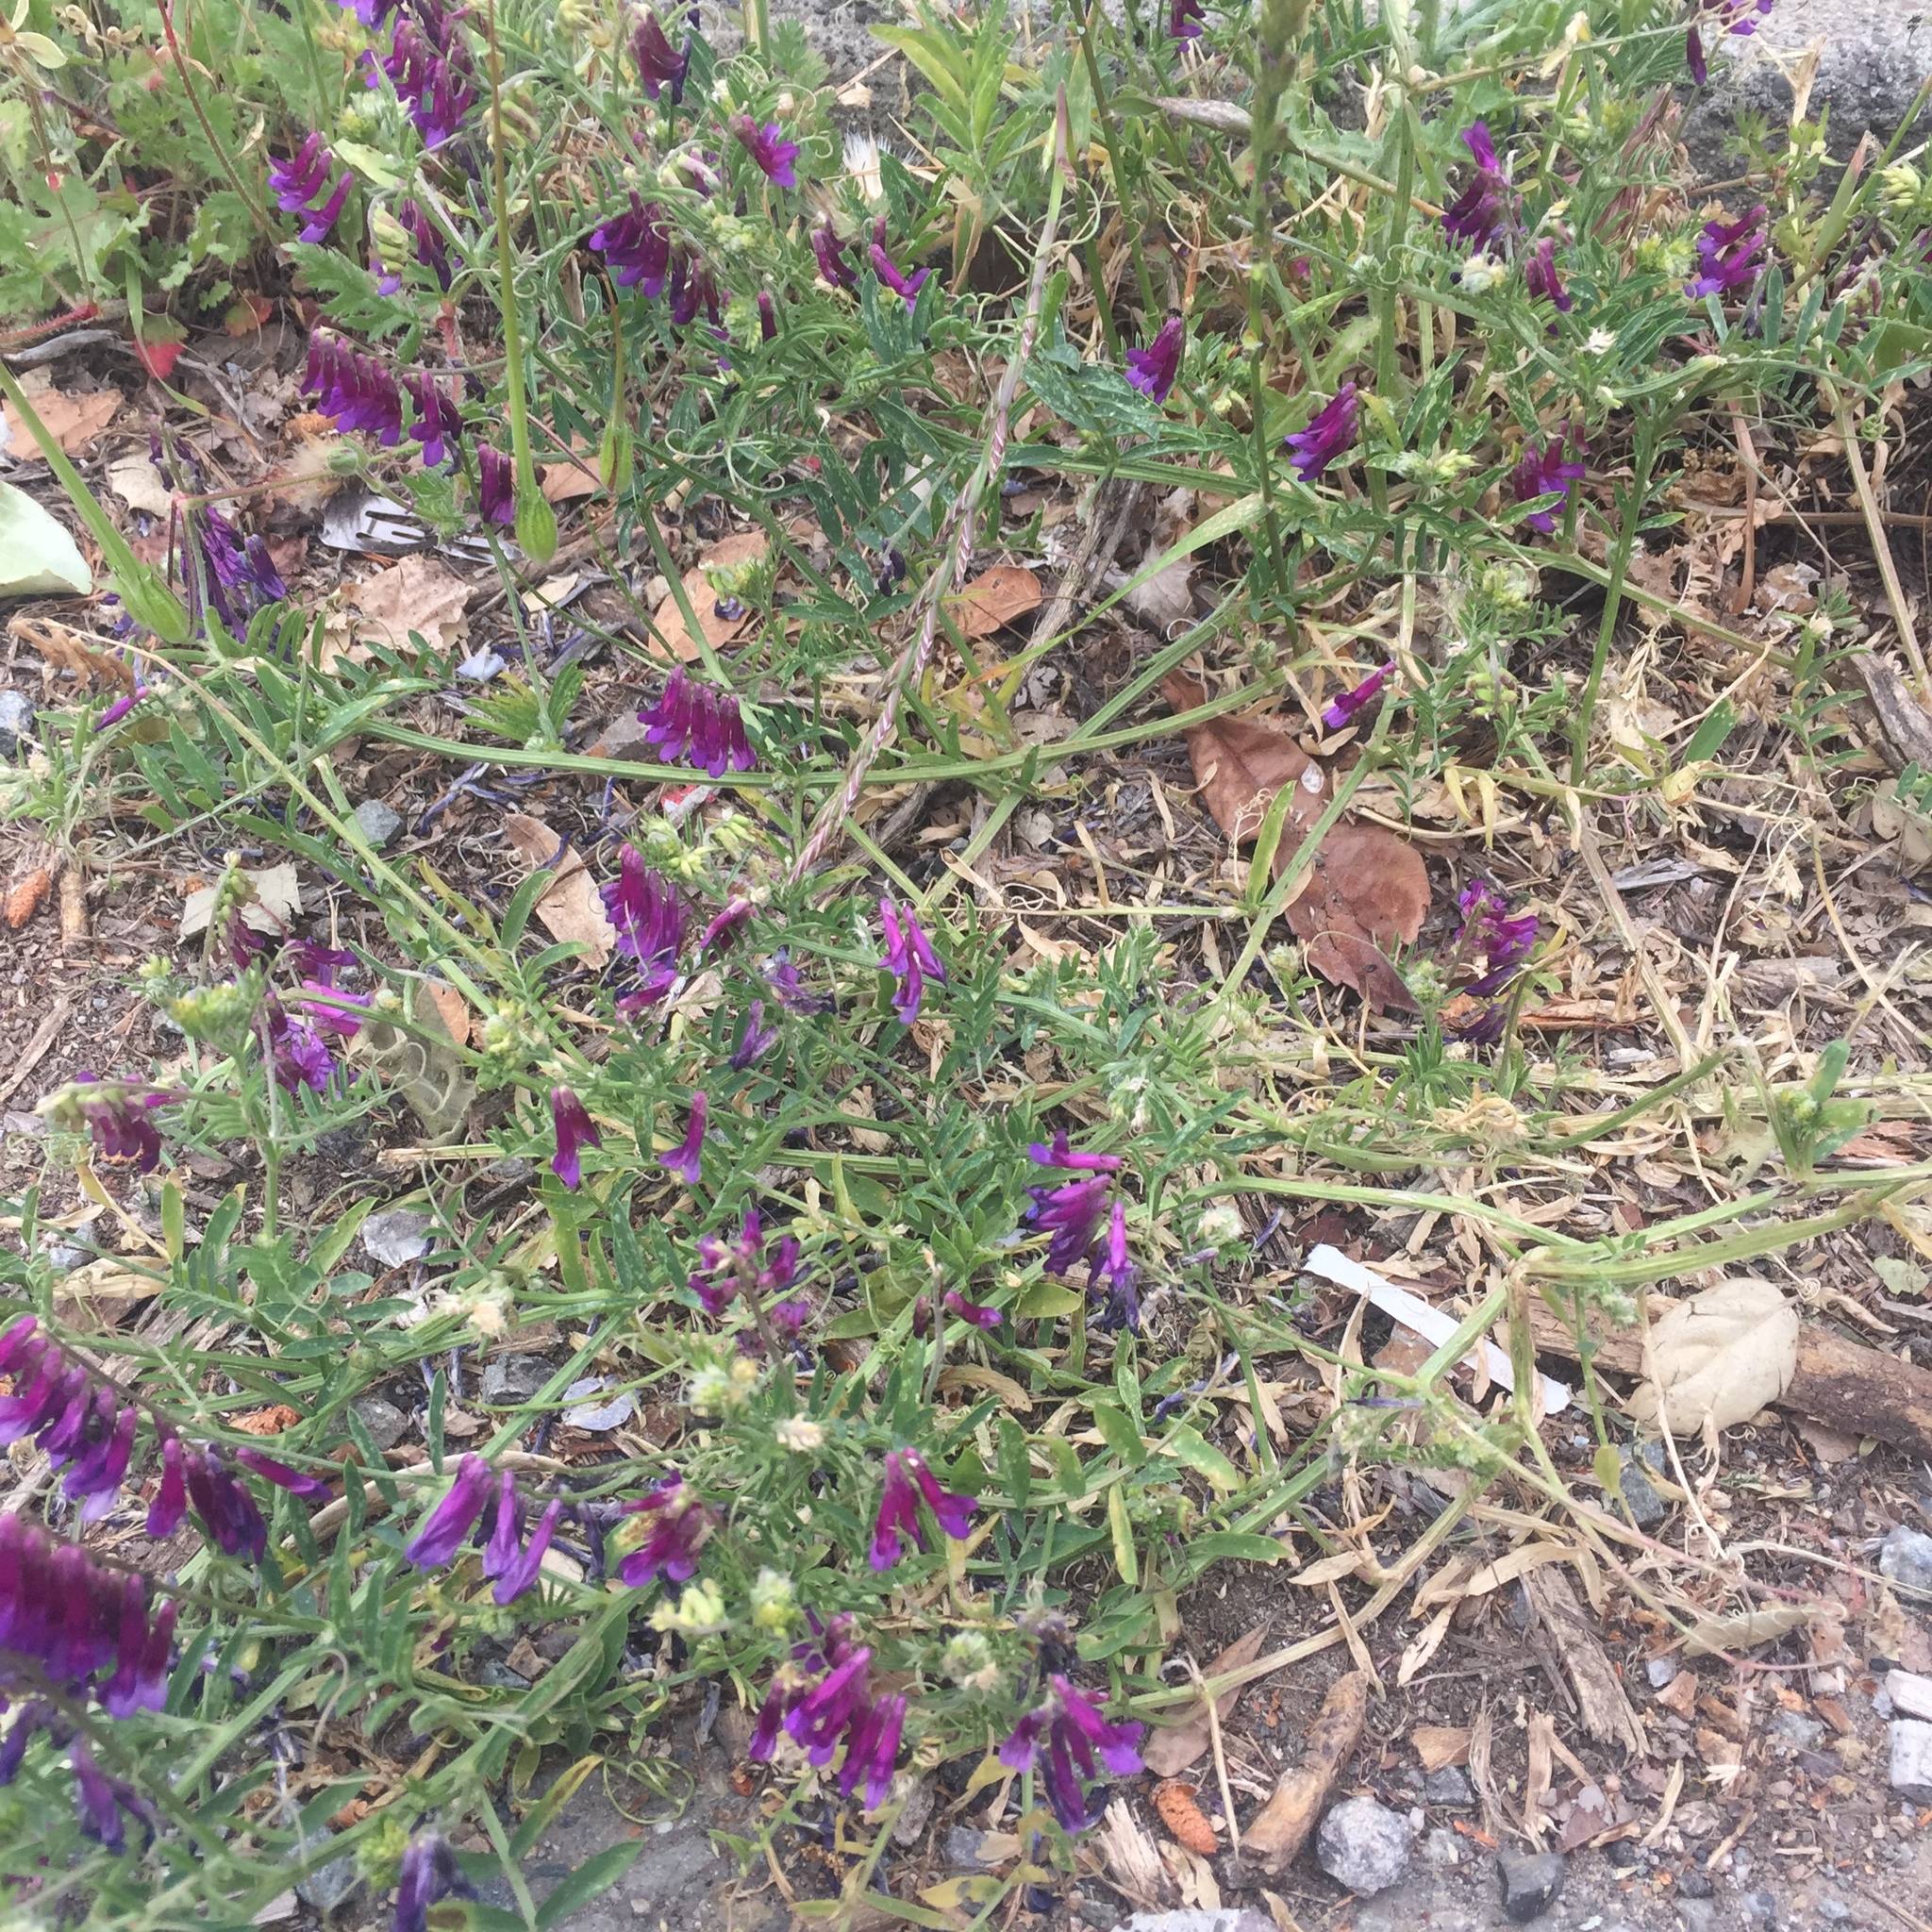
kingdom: Plantae
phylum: Tracheophyta
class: Magnoliopsida
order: Fabales
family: Fabaceae
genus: Vicia
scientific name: Vicia villosa
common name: Fodder vetch
